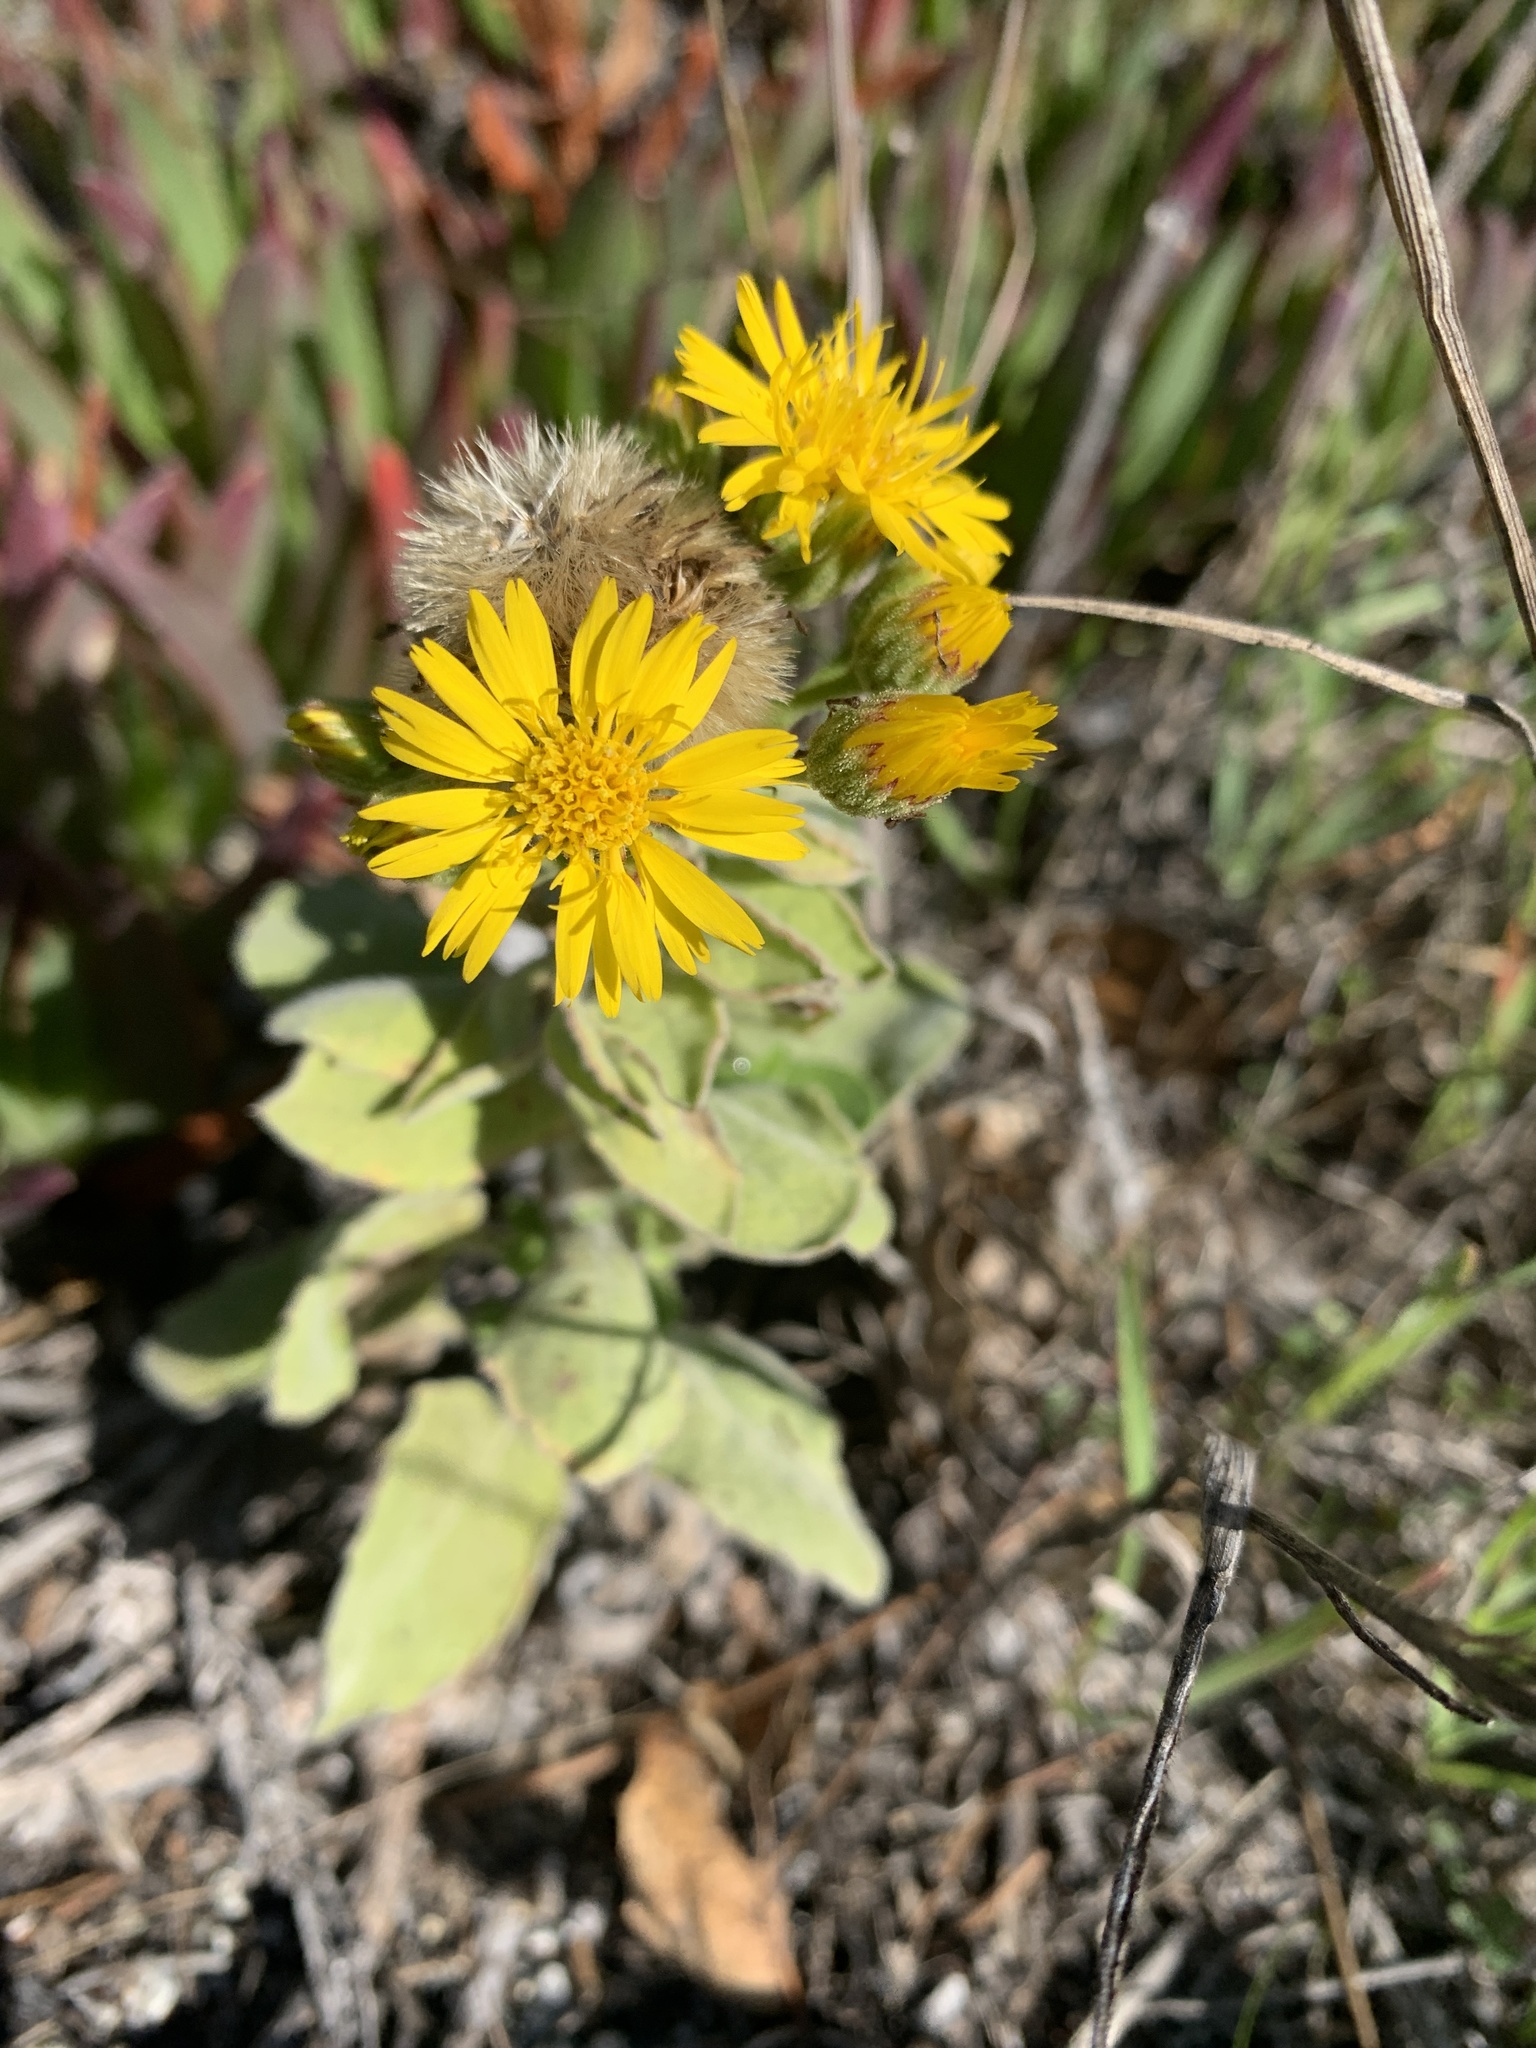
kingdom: Plantae
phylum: Tracheophyta
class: Magnoliopsida
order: Asterales
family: Asteraceae
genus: Heterotheca
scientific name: Heterotheca grandiflora
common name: Telegraphweed
